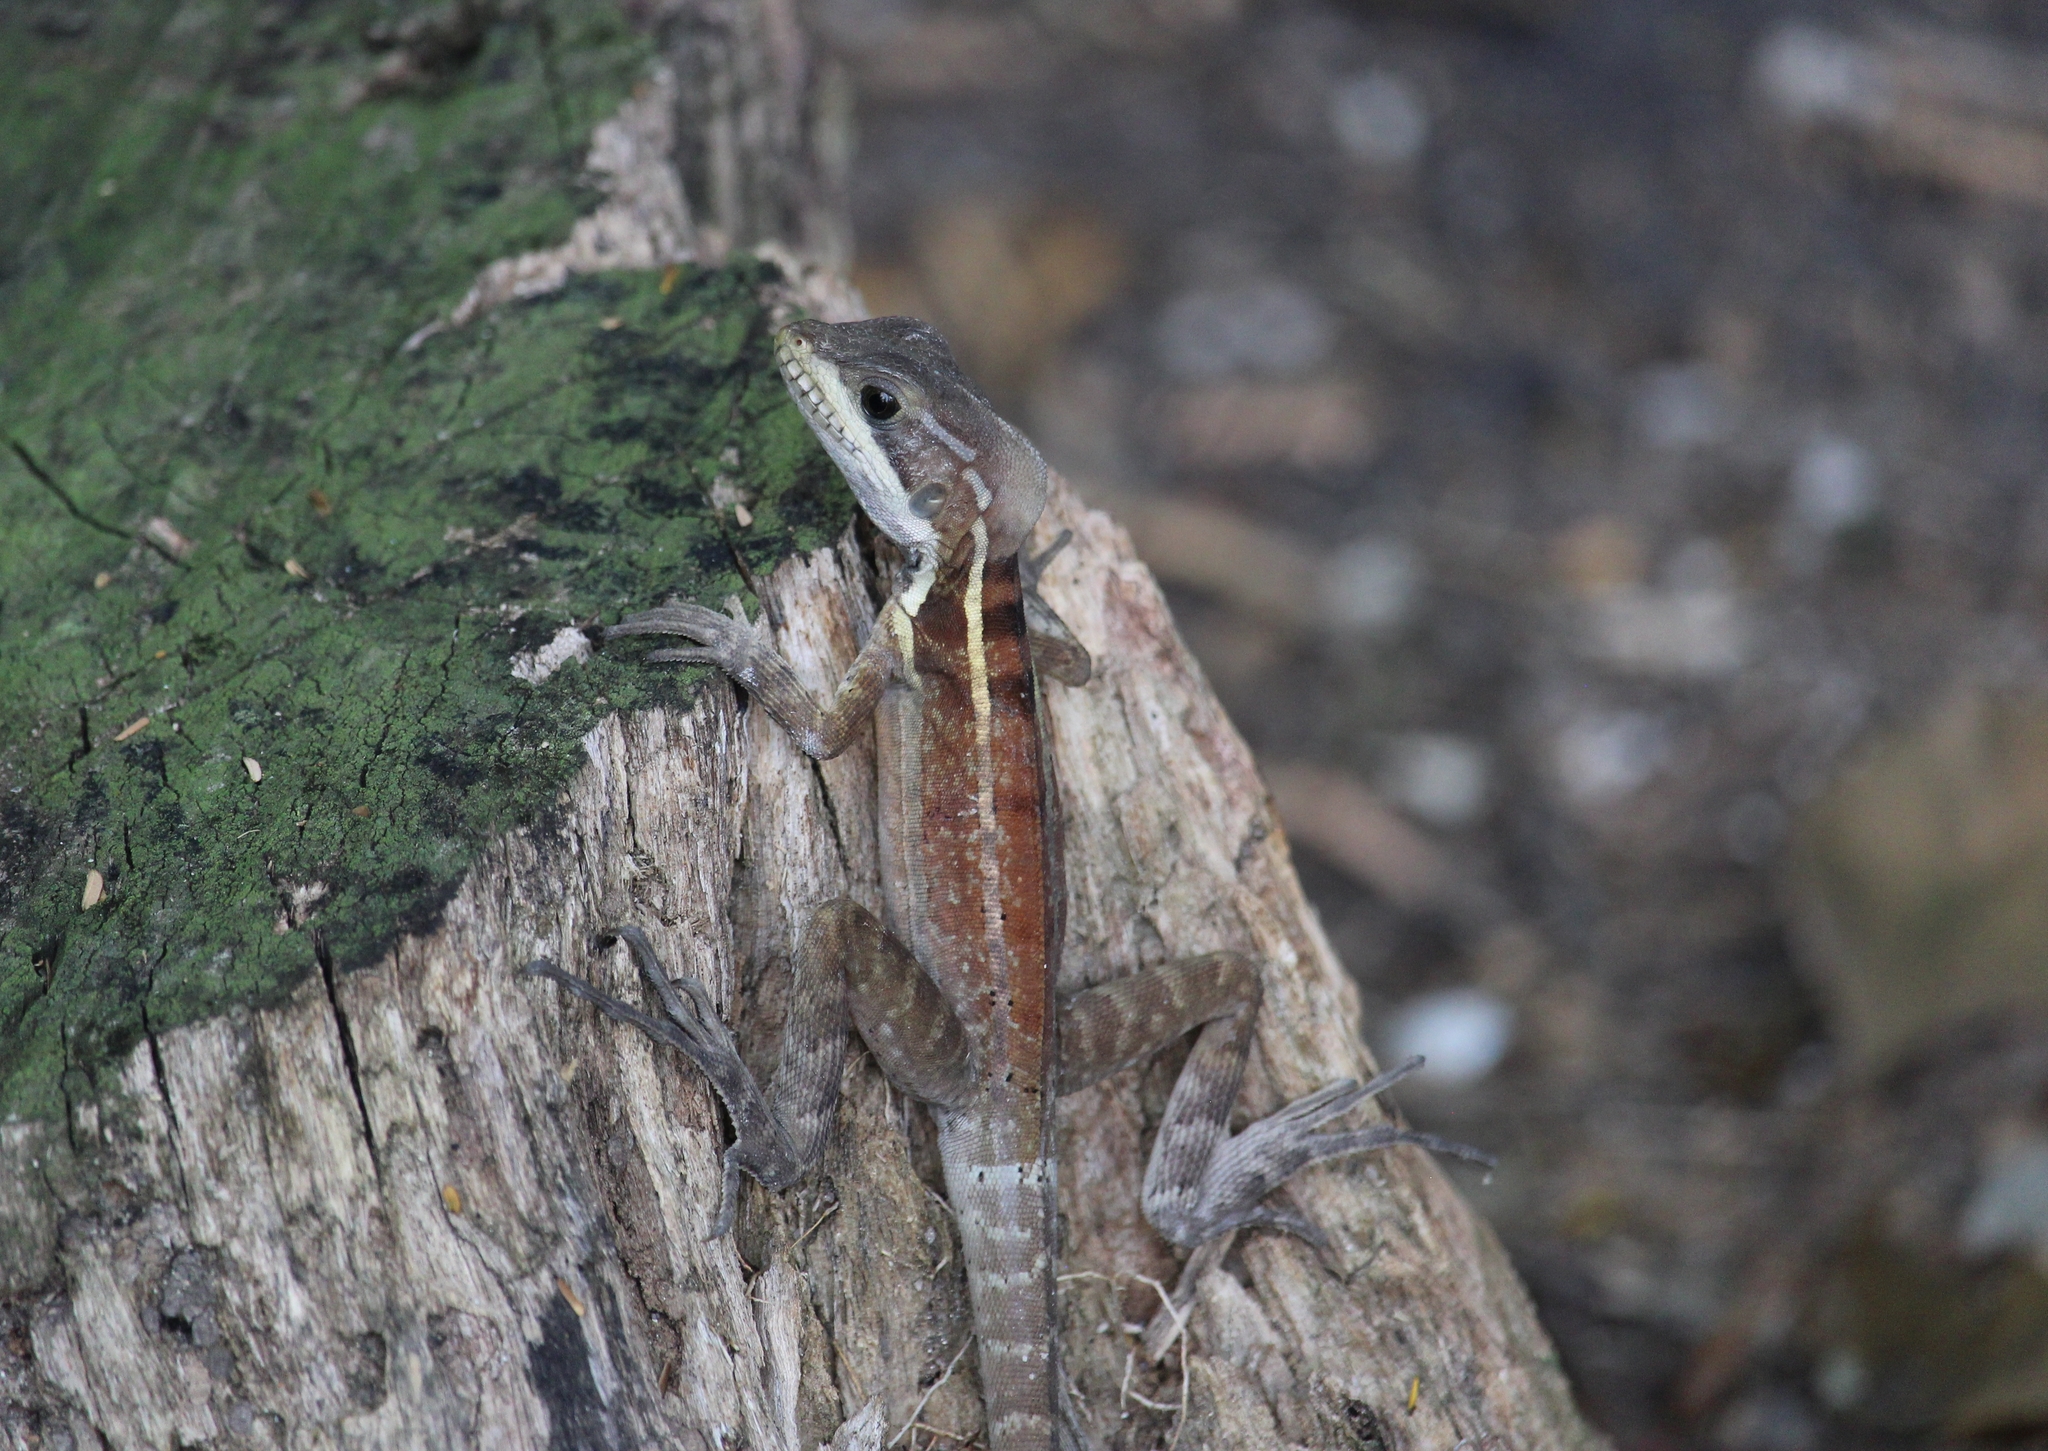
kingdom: Animalia
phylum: Chordata
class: Squamata
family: Corytophanidae
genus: Basiliscus
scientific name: Basiliscus vittatus
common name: Brown basilisk
